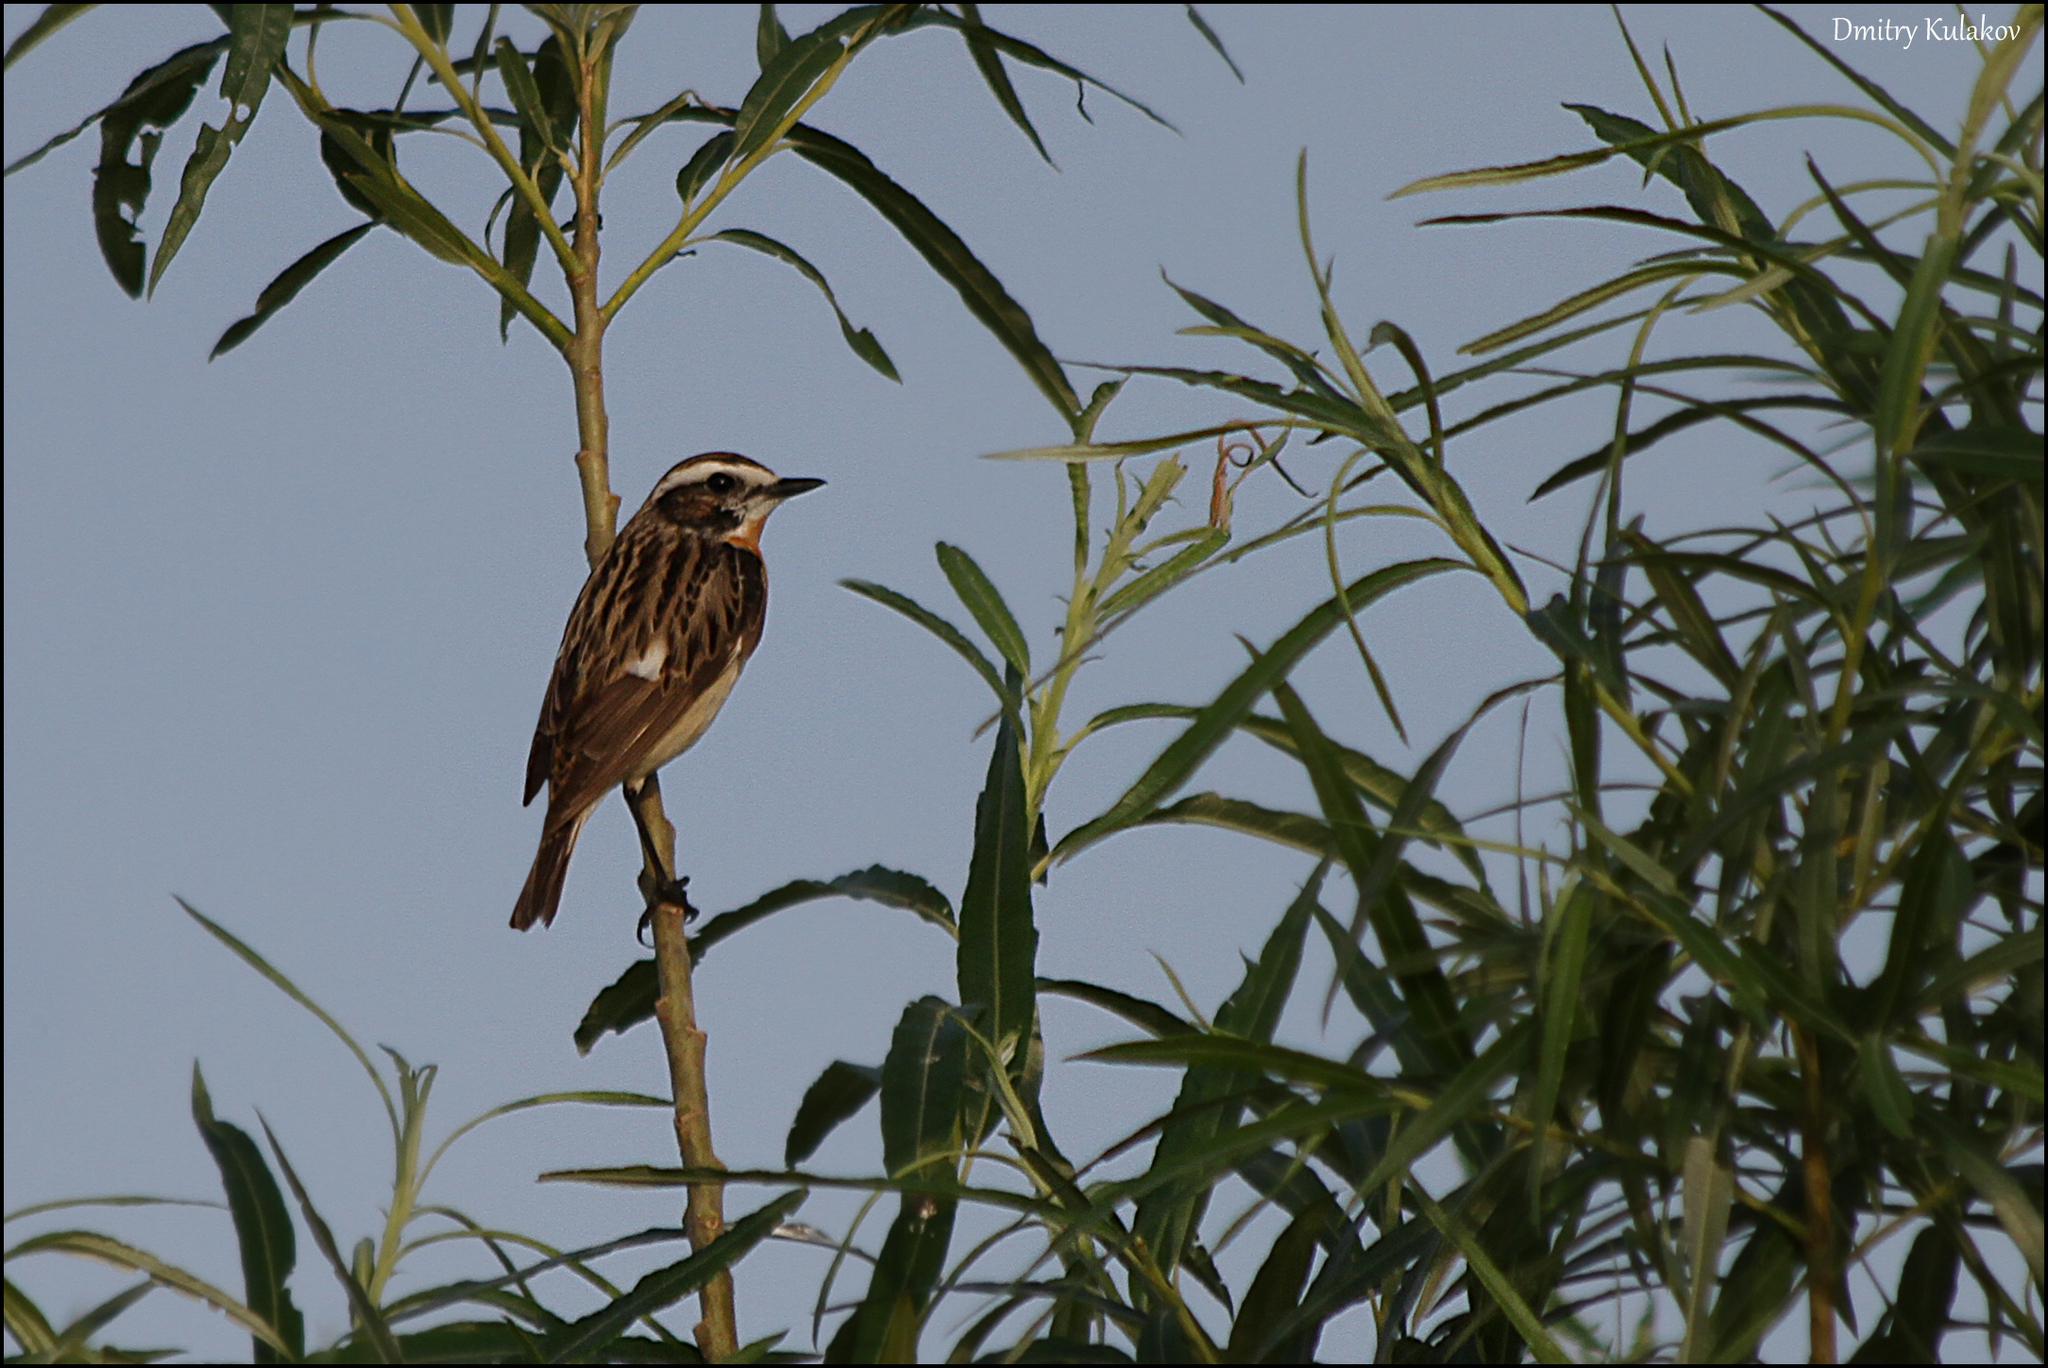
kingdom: Animalia
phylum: Chordata
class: Aves
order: Passeriformes
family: Muscicapidae
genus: Saxicola
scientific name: Saxicola rubetra
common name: Whinchat
